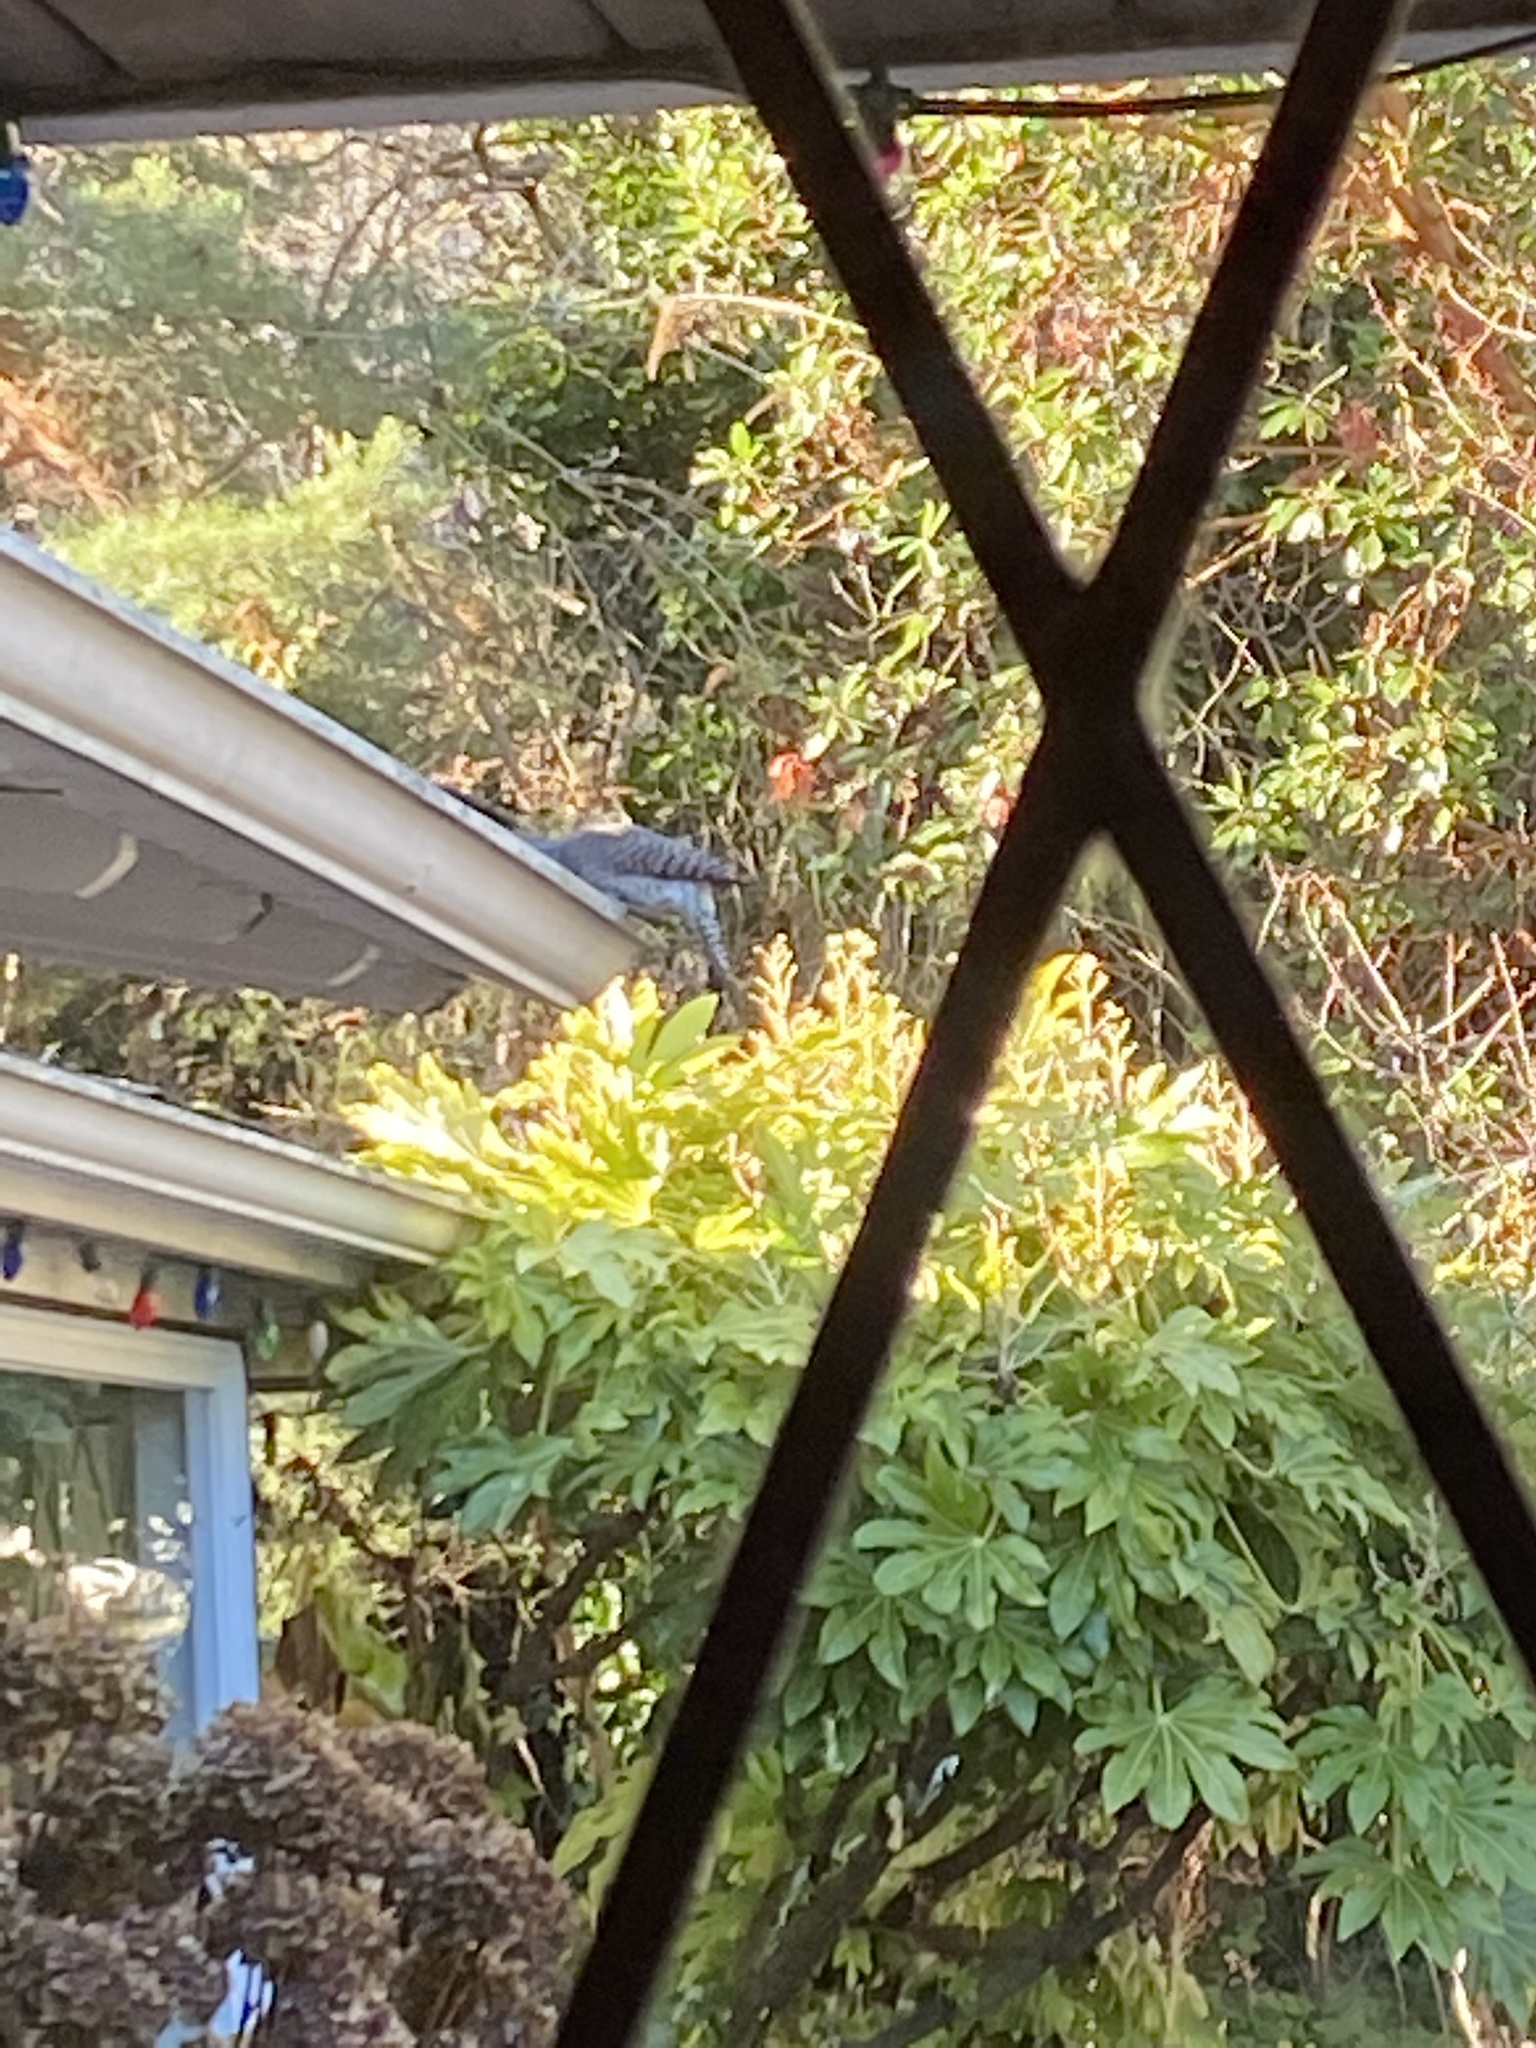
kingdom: Animalia
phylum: Chordata
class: Aves
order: Piciformes
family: Picidae
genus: Colaptes
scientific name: Colaptes auratus
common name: Northern flicker
